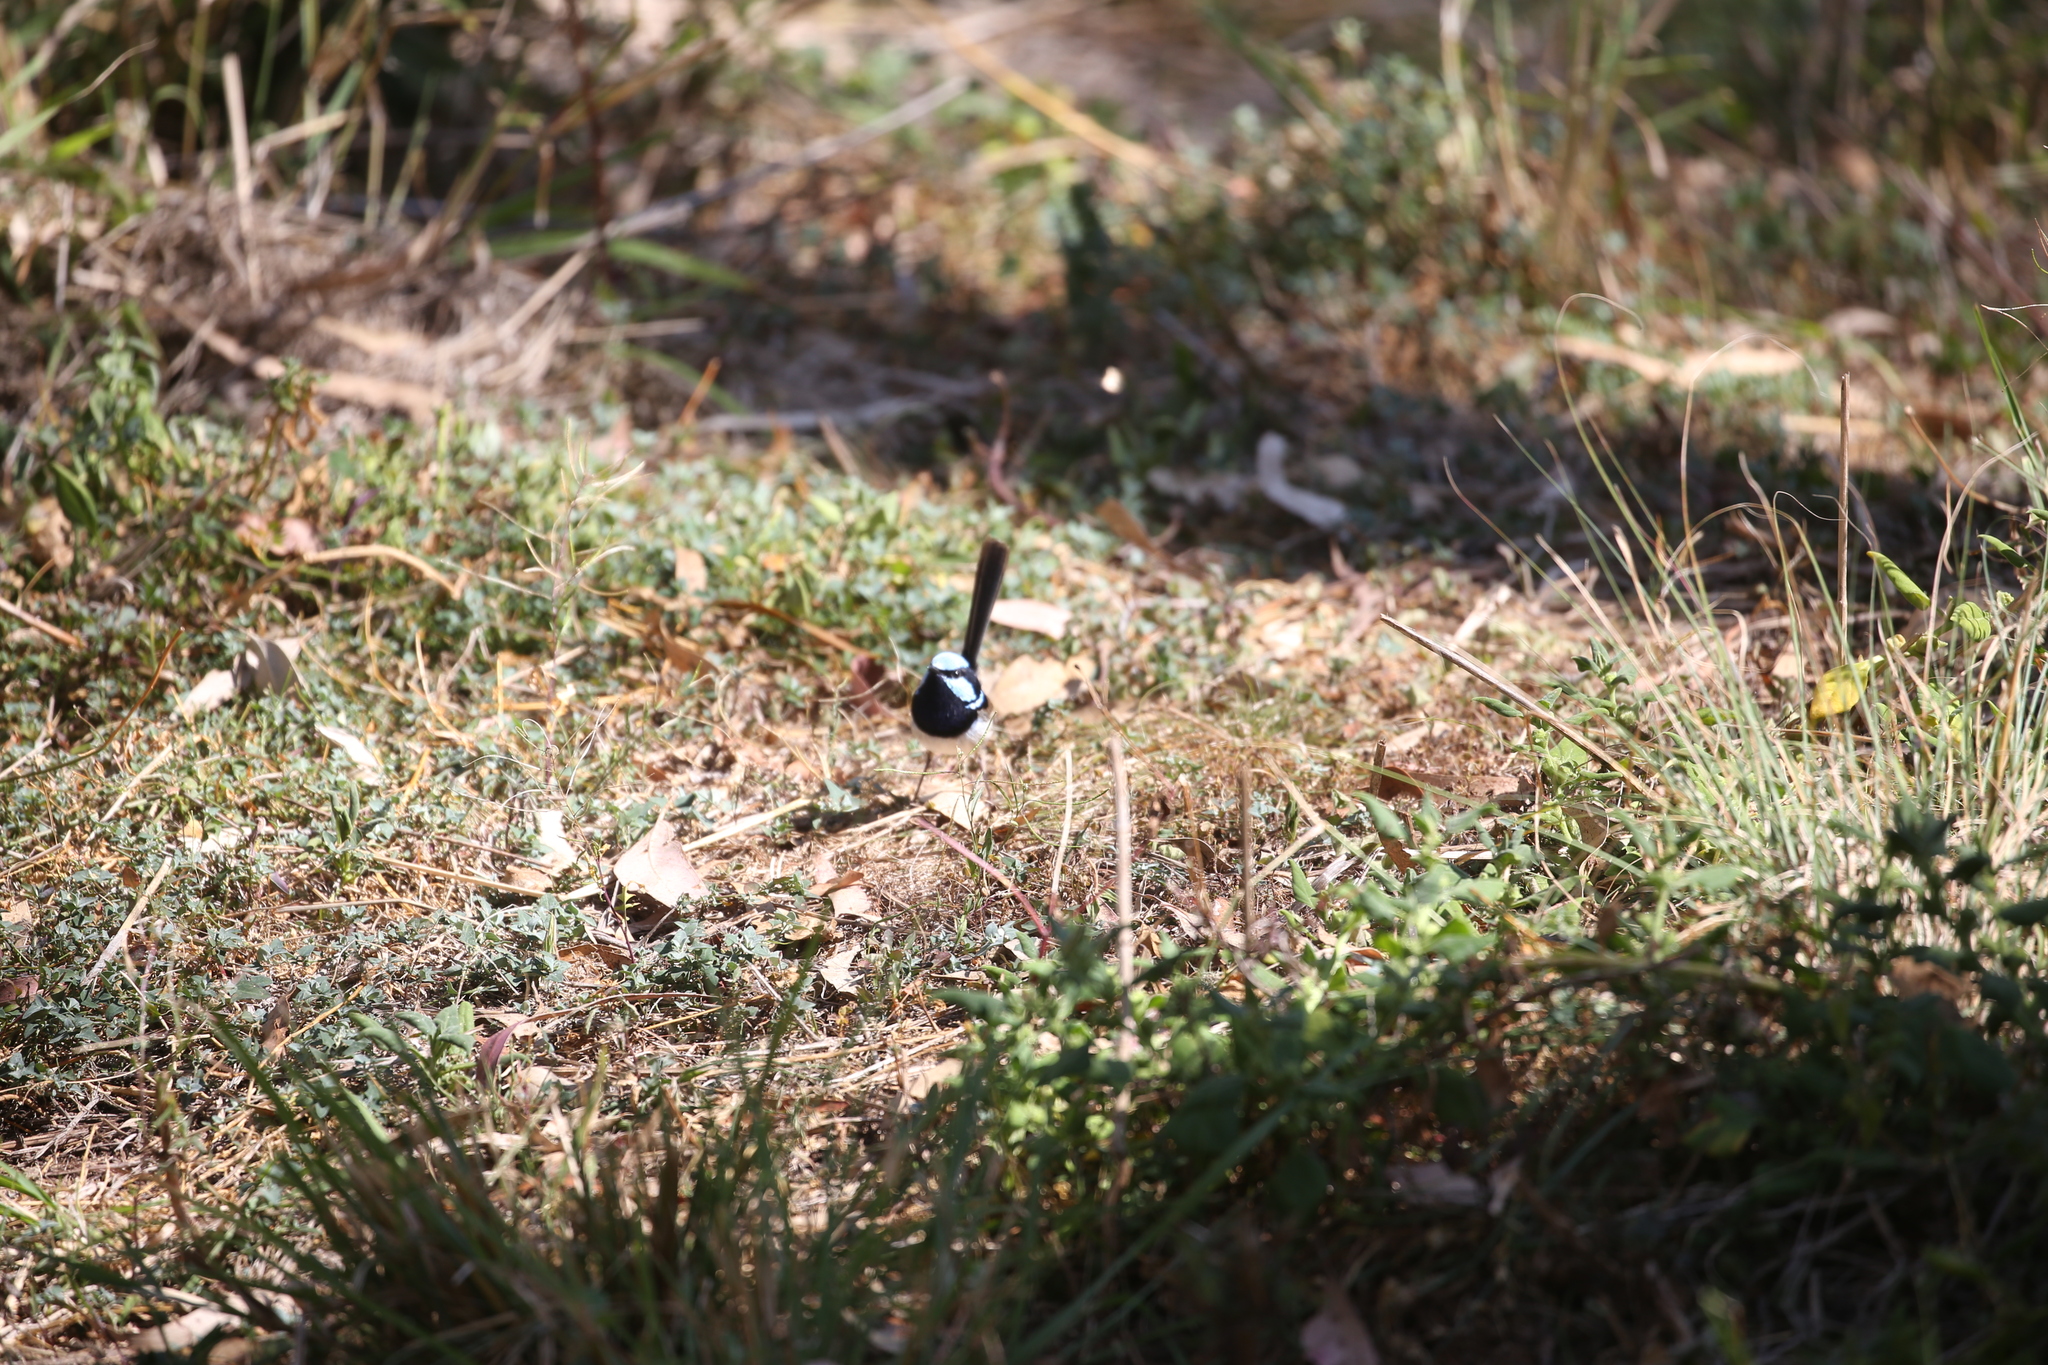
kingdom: Animalia
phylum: Chordata
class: Aves
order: Passeriformes
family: Maluridae
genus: Malurus
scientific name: Malurus cyaneus
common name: Superb fairywren
